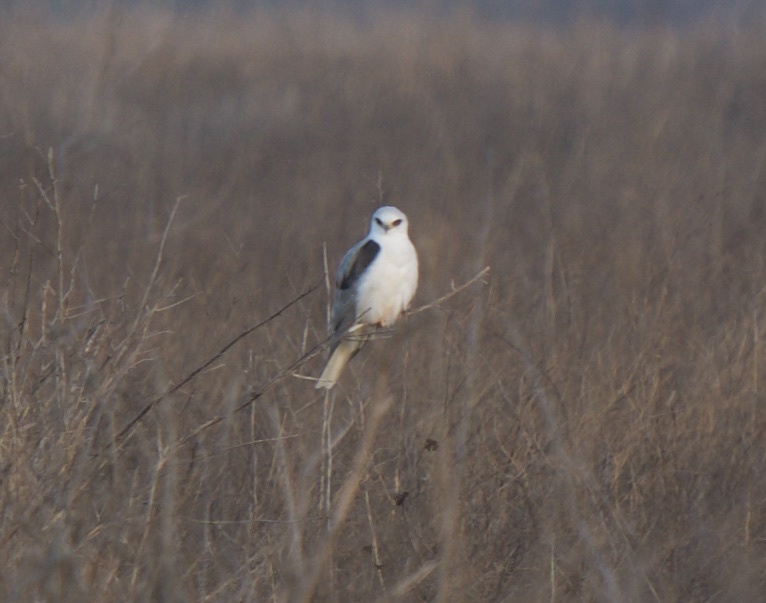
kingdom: Animalia
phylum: Chordata
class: Aves
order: Accipitriformes
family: Accipitridae
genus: Elanus
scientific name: Elanus leucurus
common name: White-tailed kite
